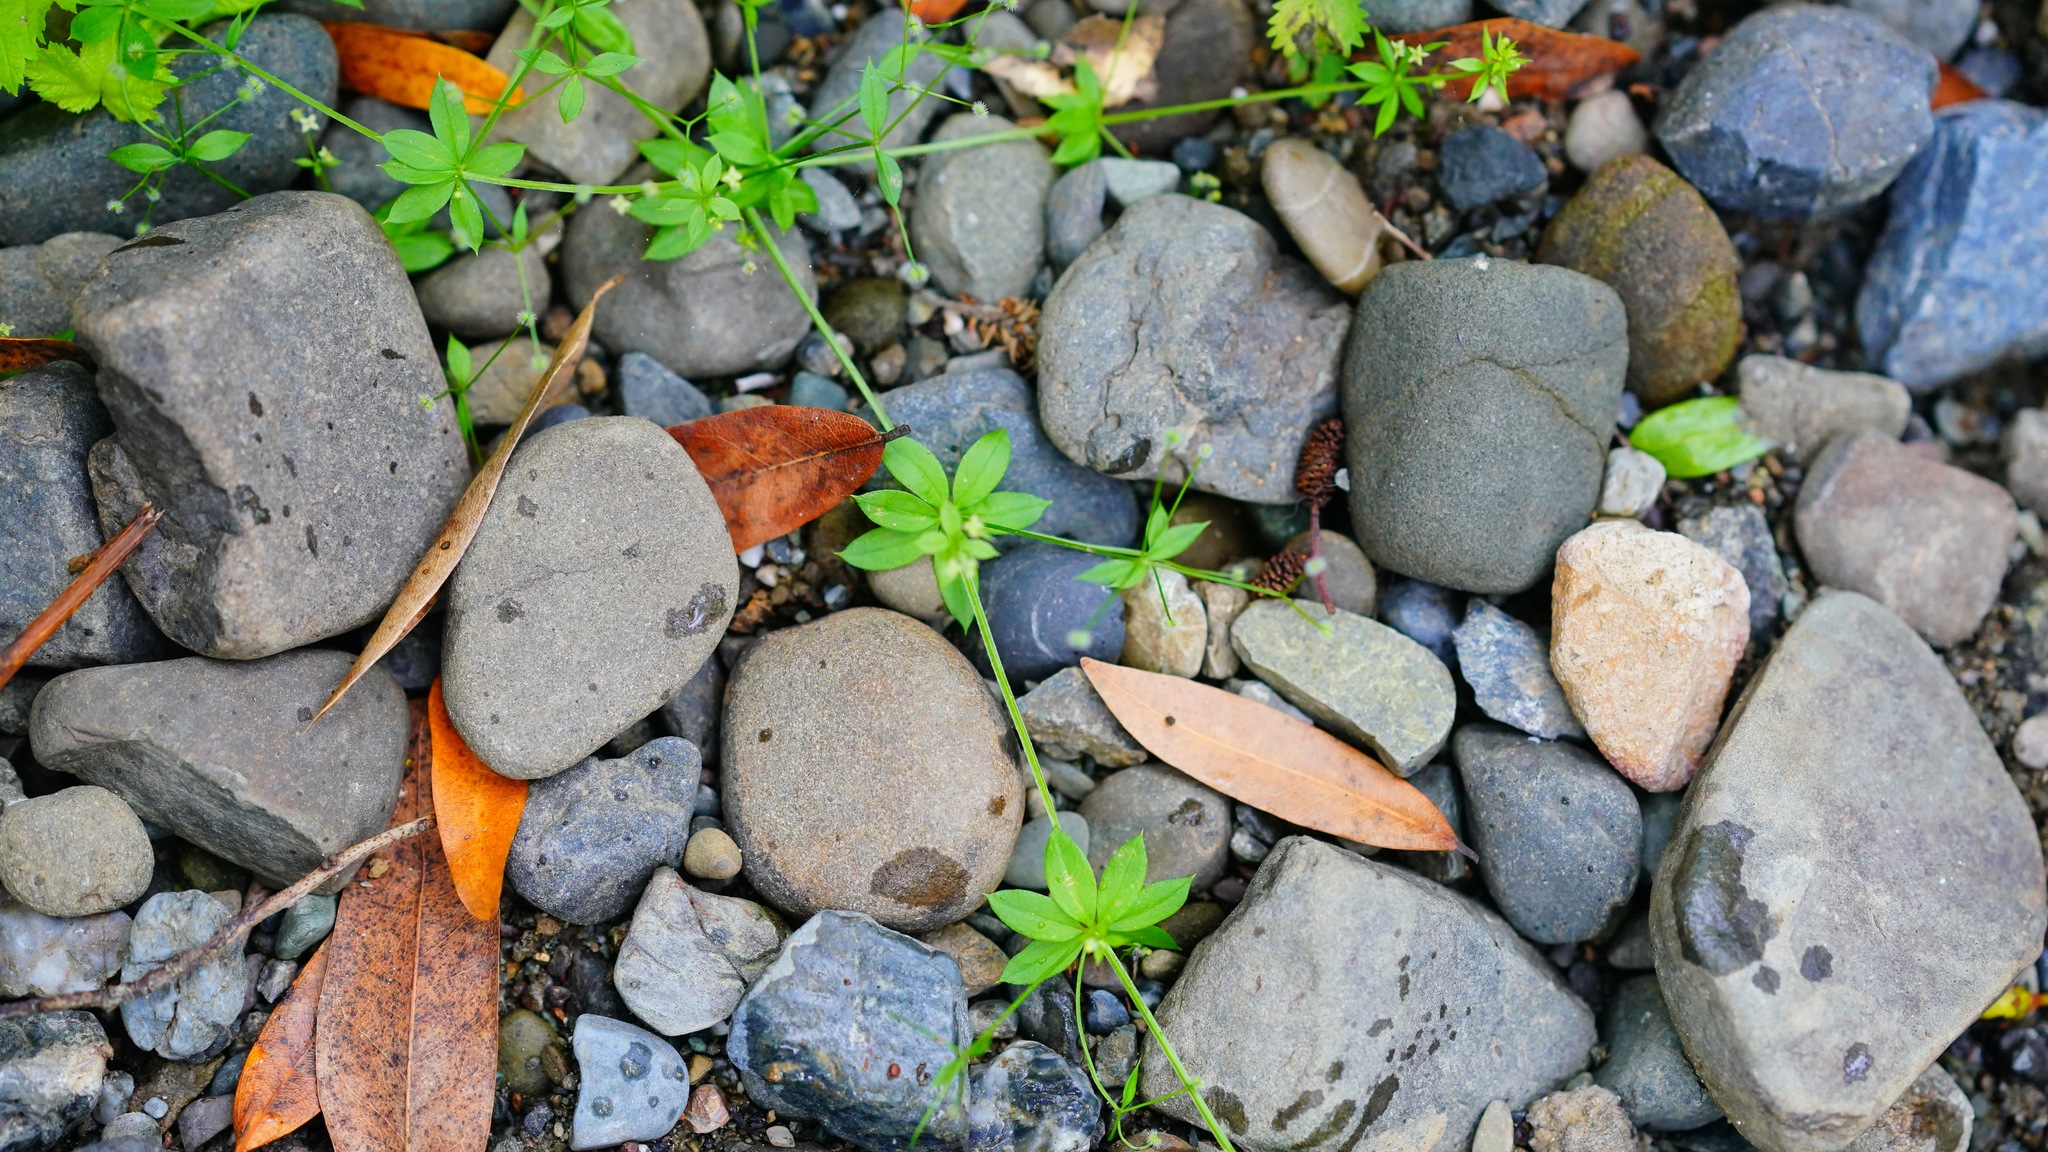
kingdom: Plantae
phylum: Tracheophyta
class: Magnoliopsida
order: Gentianales
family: Rubiaceae
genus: Galium
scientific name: Galium triflorum
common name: Fragrant bedstraw
